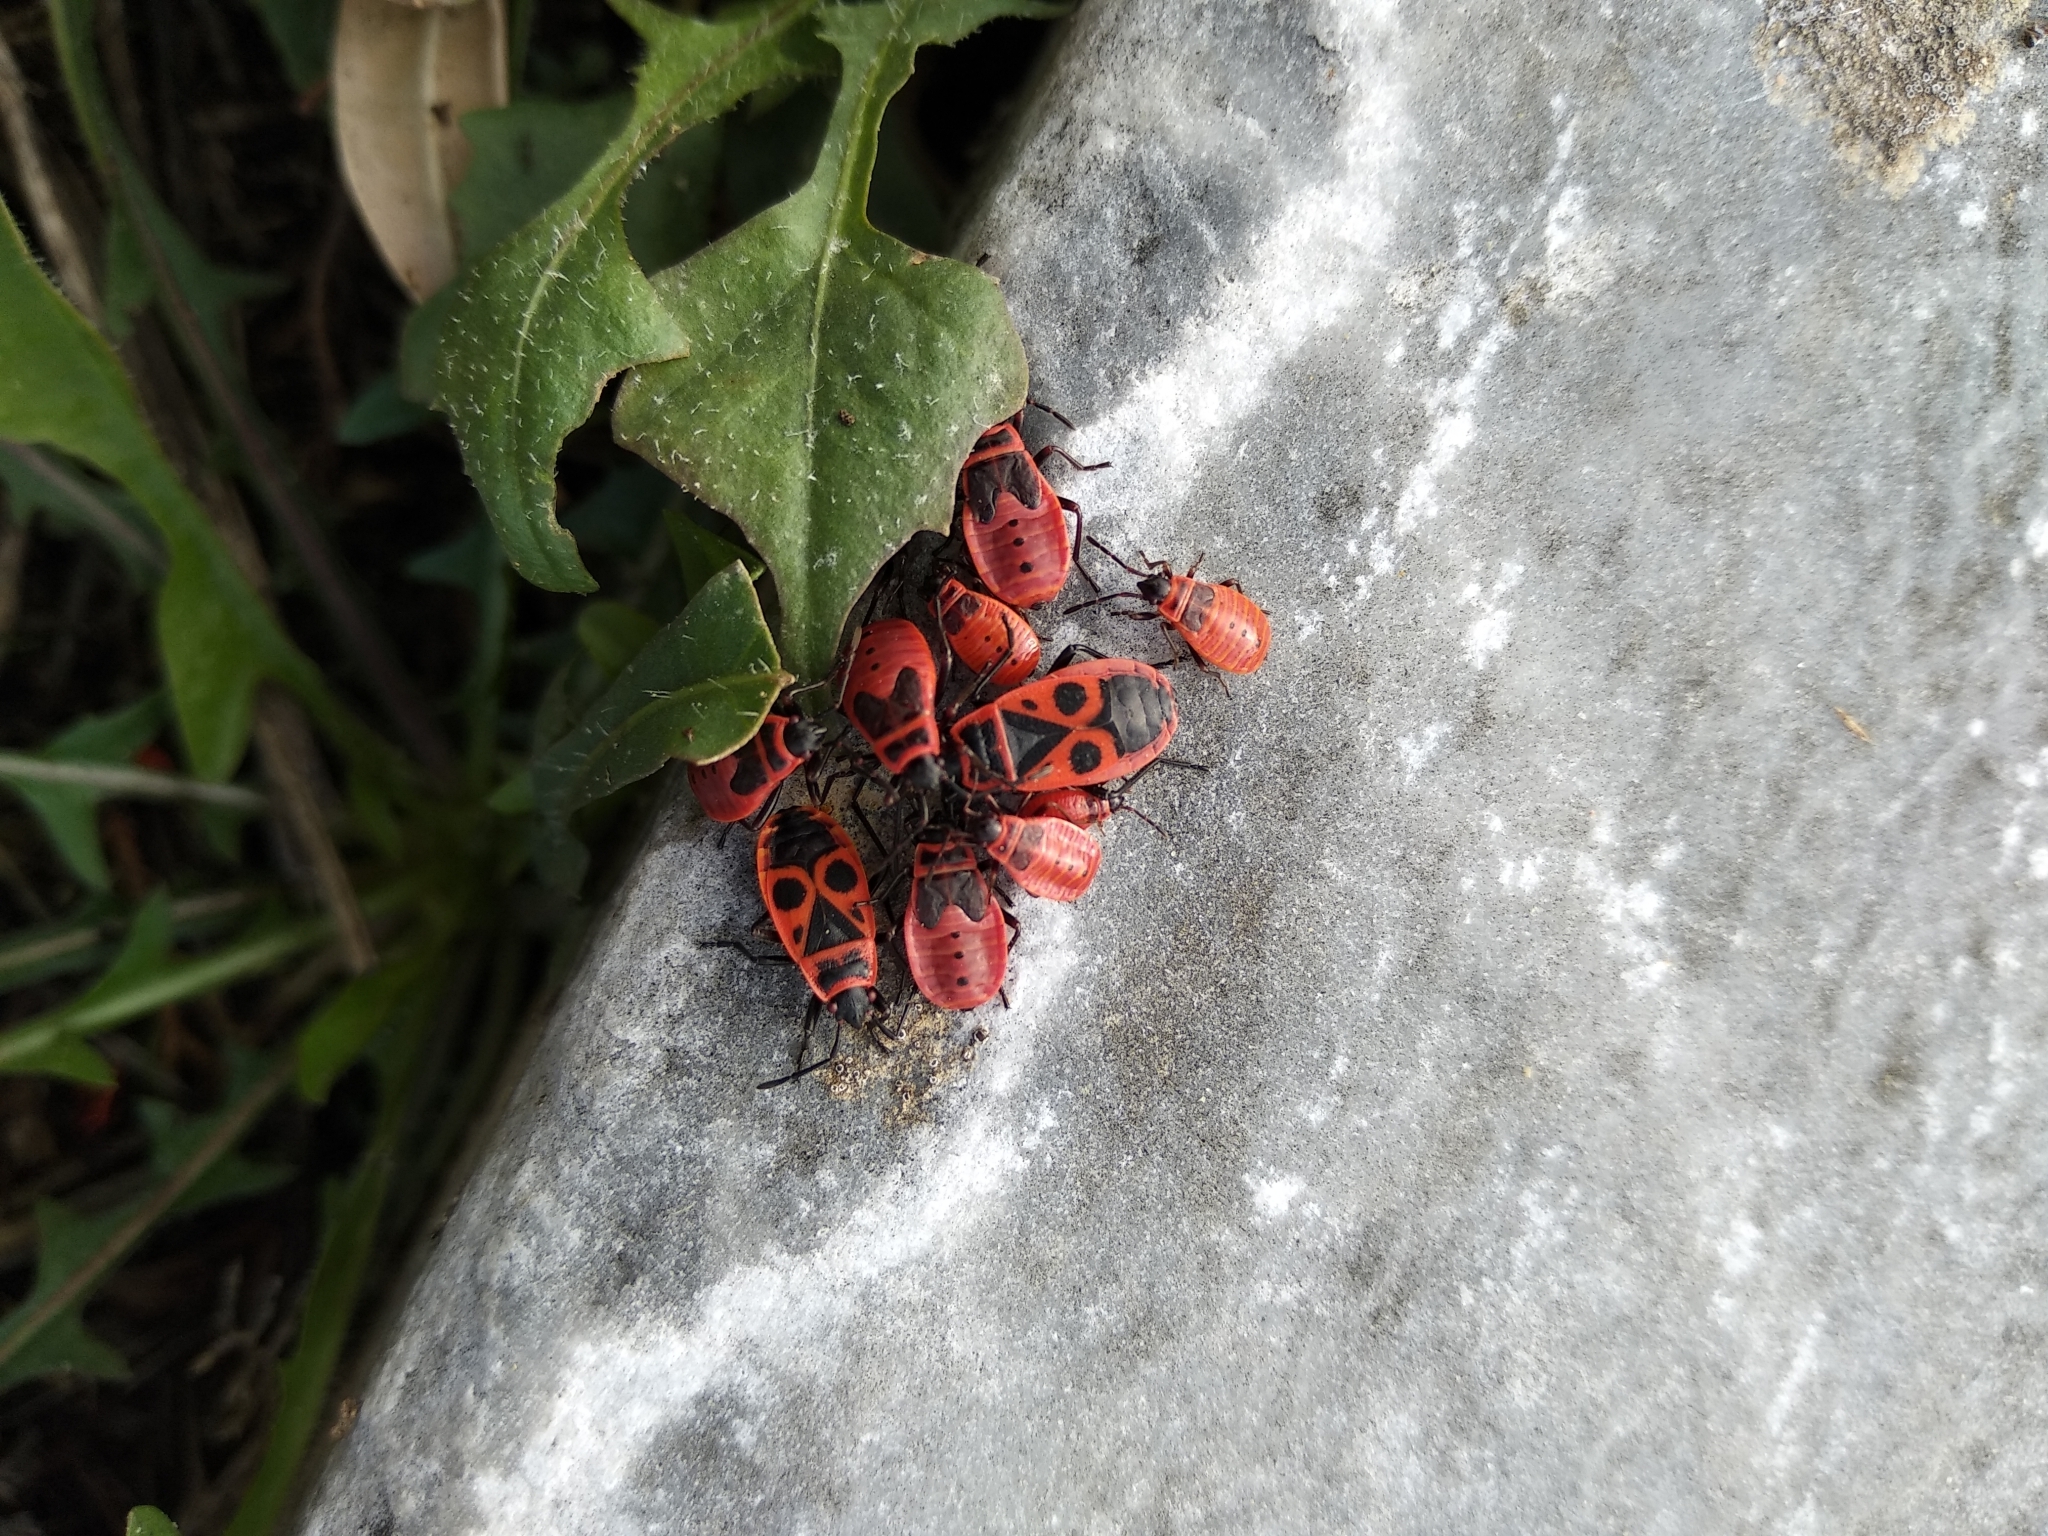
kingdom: Animalia
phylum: Arthropoda
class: Insecta
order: Hemiptera
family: Pyrrhocoridae
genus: Pyrrhocoris
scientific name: Pyrrhocoris apterus
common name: Firebug
